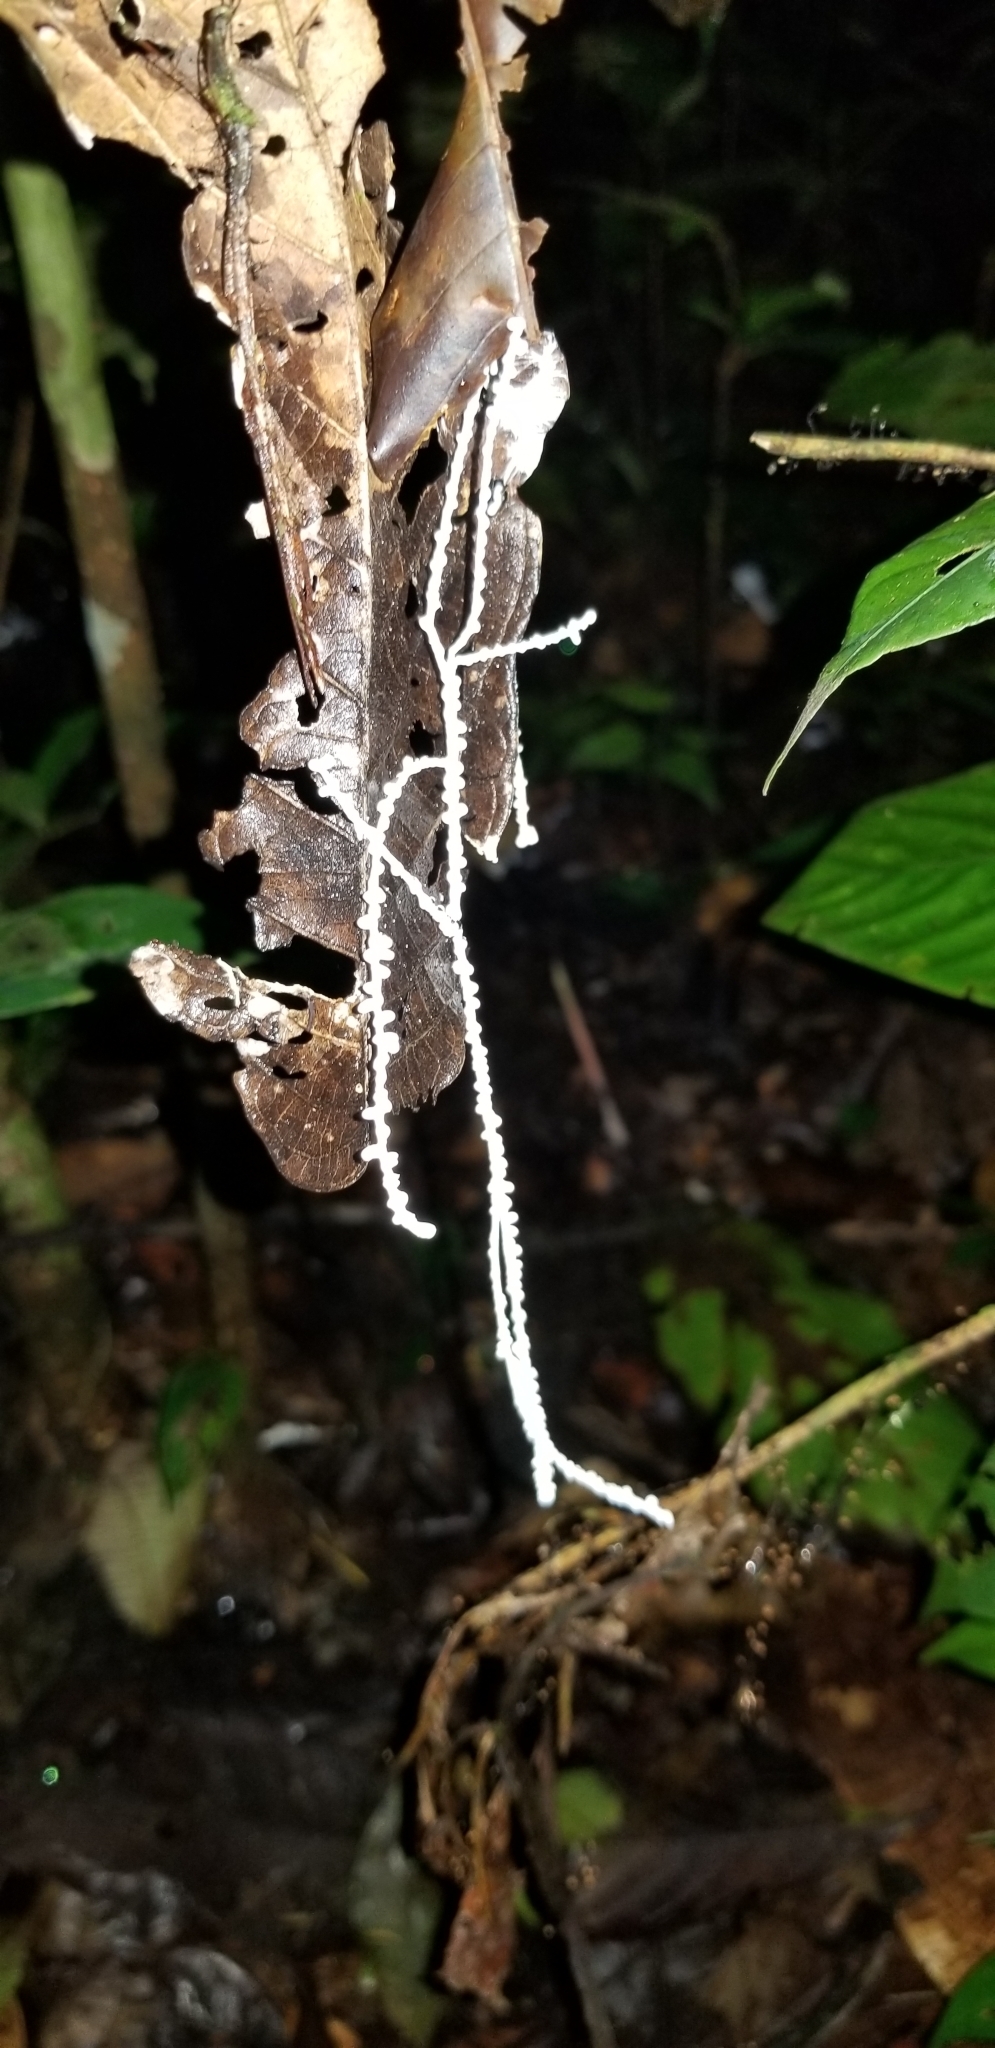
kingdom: Fungi
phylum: Basidiomycota
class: Agaricomycetes
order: Agaricales
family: Marasmiaceae
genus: Brunneocorticium
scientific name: Brunneocorticium corynecarpon
